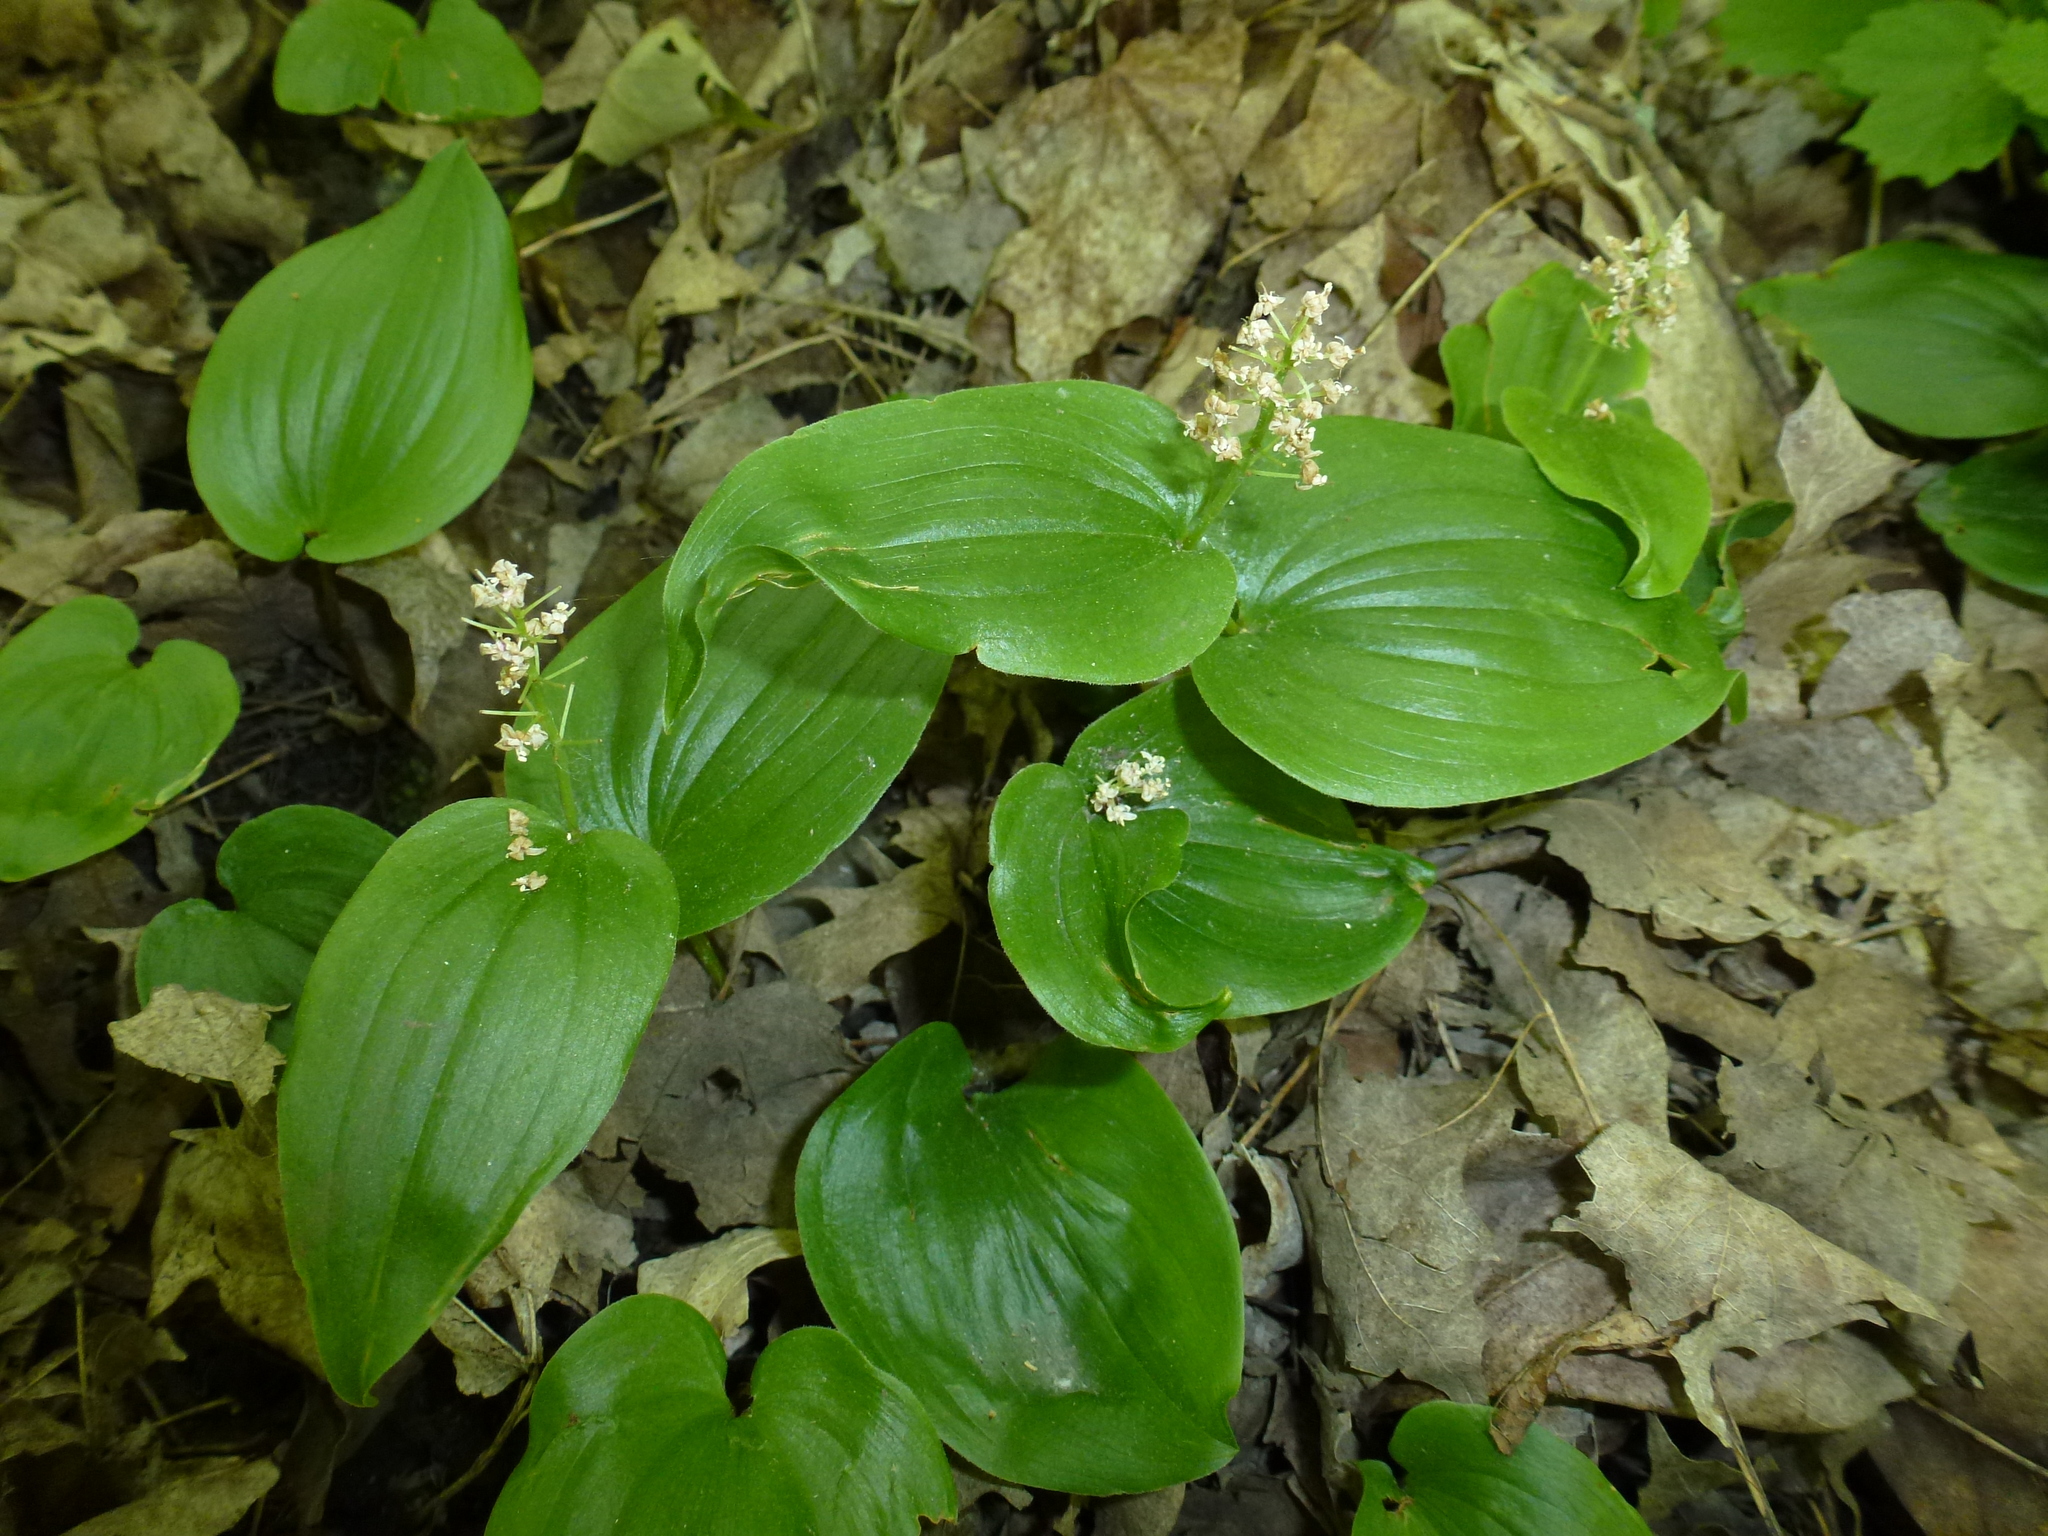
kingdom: Plantae
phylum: Tracheophyta
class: Liliopsida
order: Asparagales
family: Asparagaceae
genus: Maianthemum
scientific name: Maianthemum canadense
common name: False lily-of-the-valley
